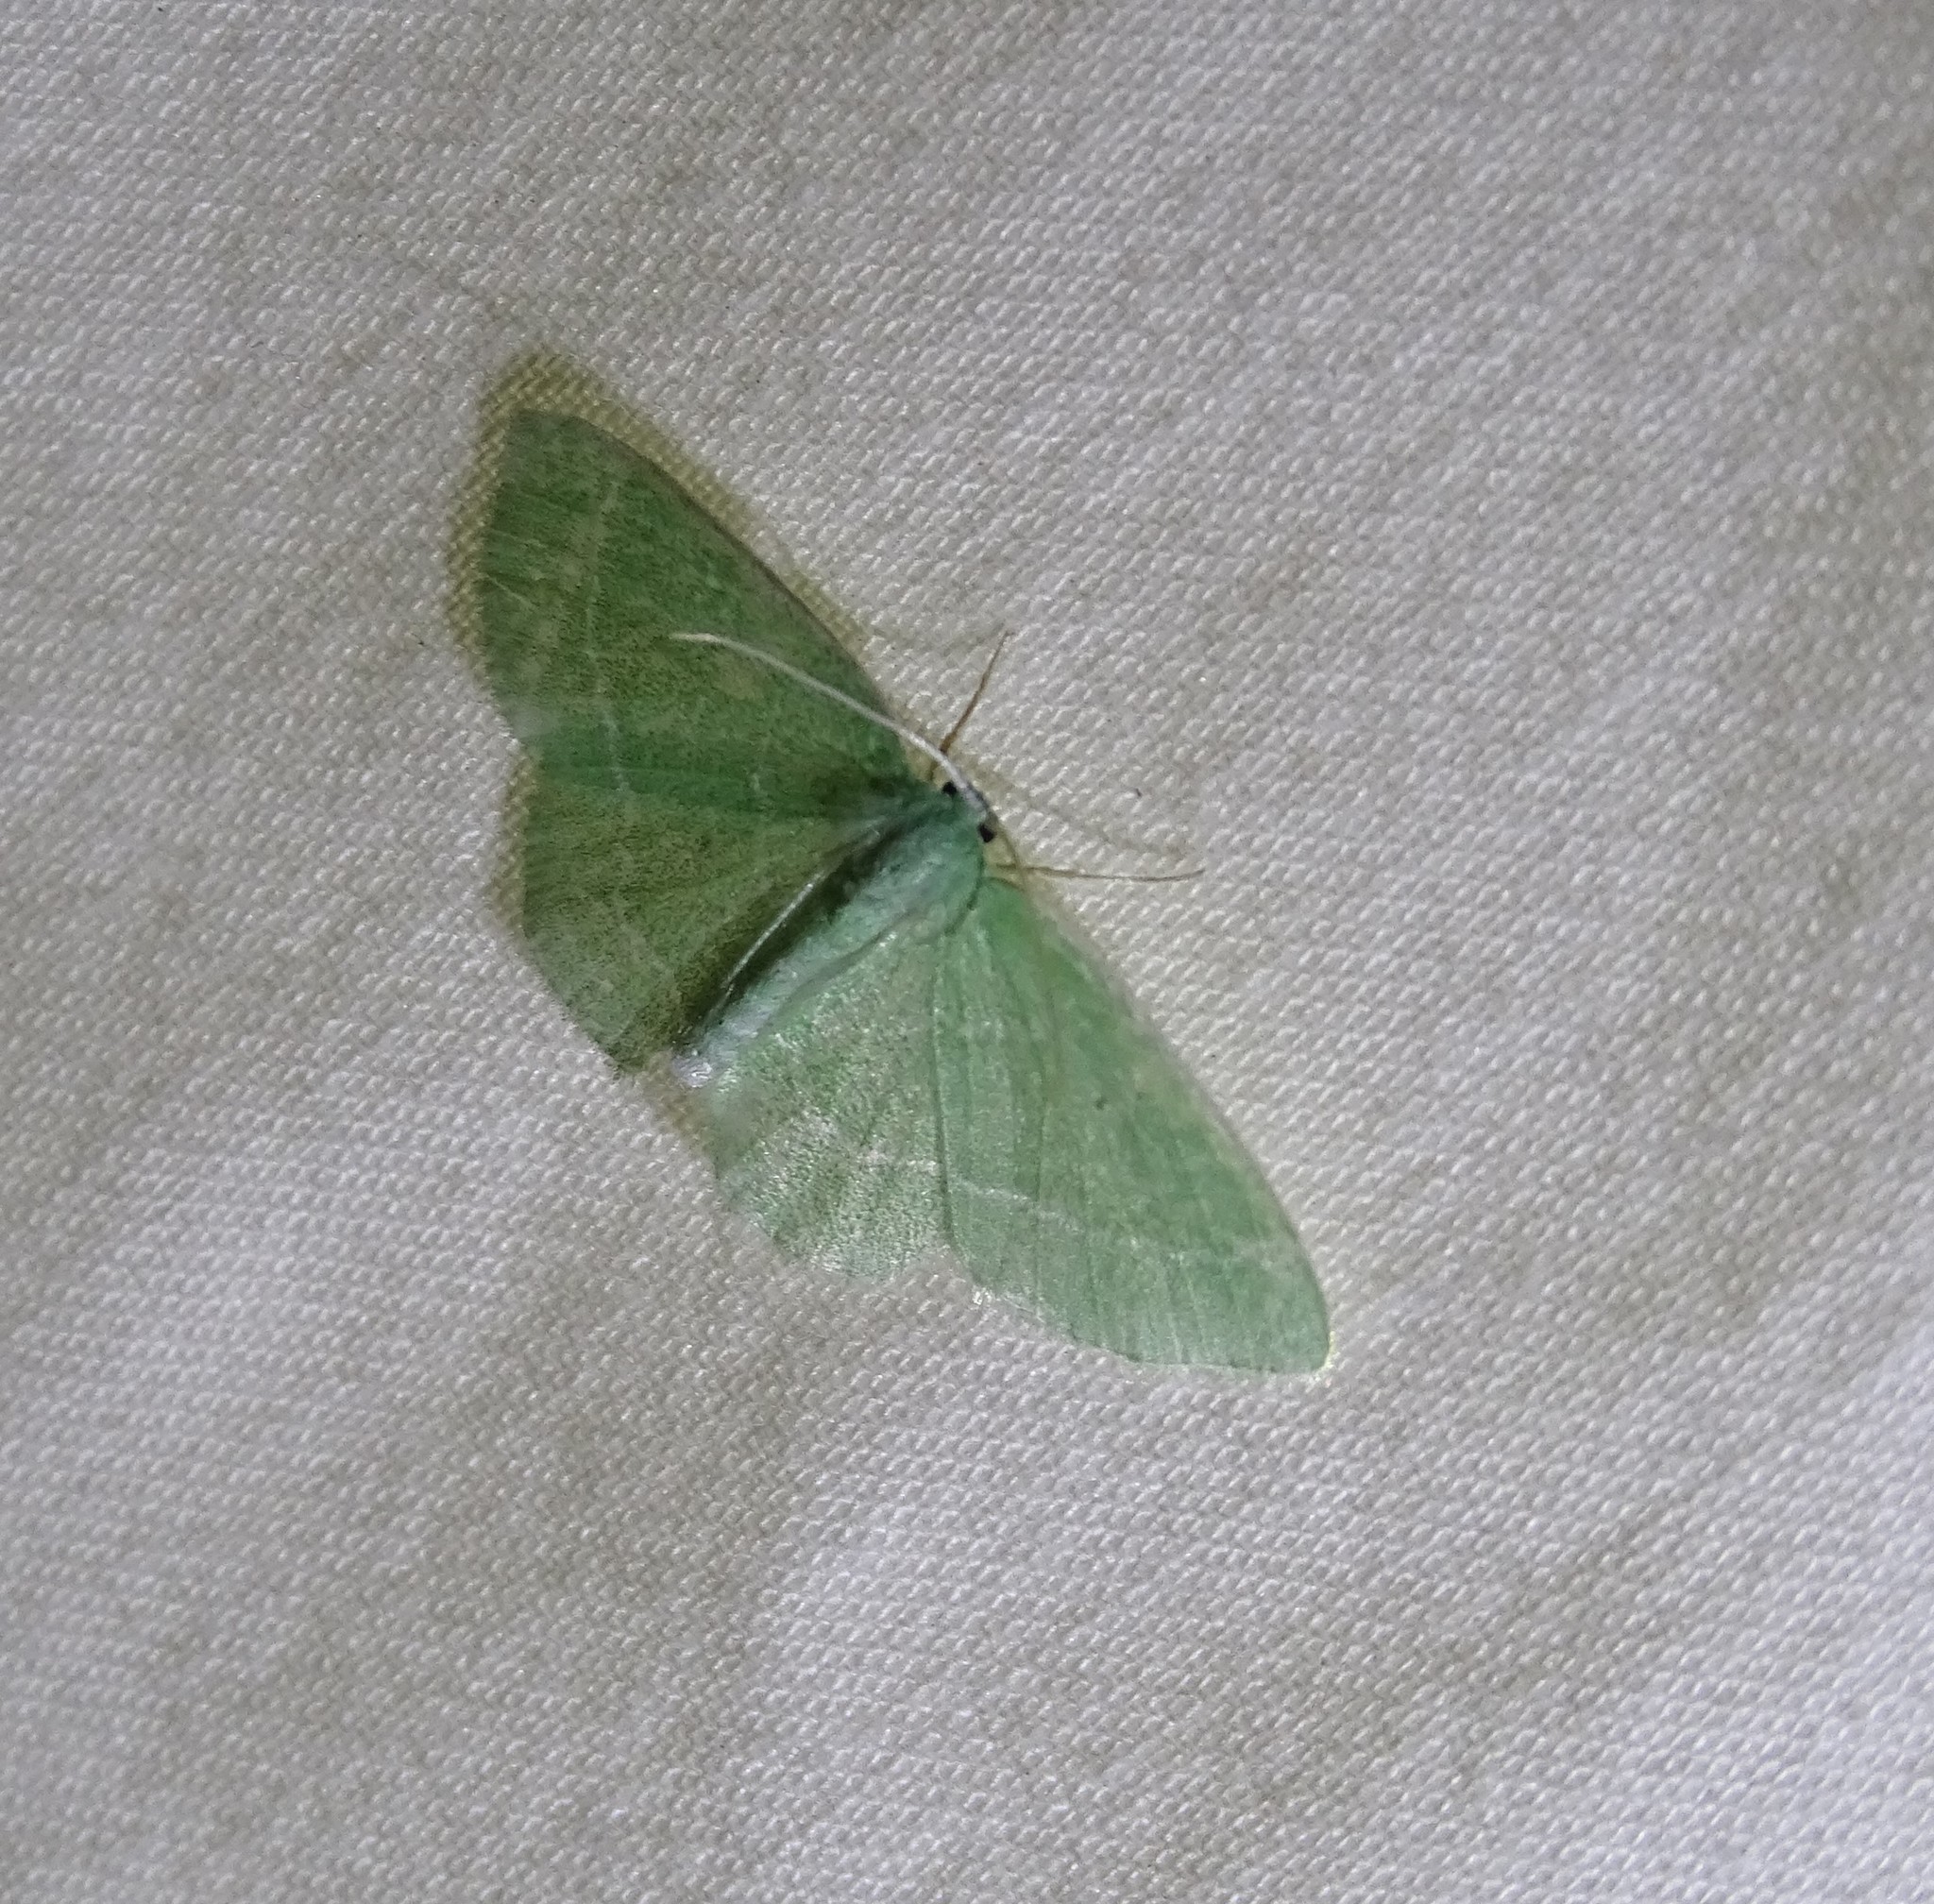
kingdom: Animalia
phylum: Arthropoda
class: Insecta
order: Lepidoptera
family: Geometridae
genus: Nemoria
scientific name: Nemoria elfa
